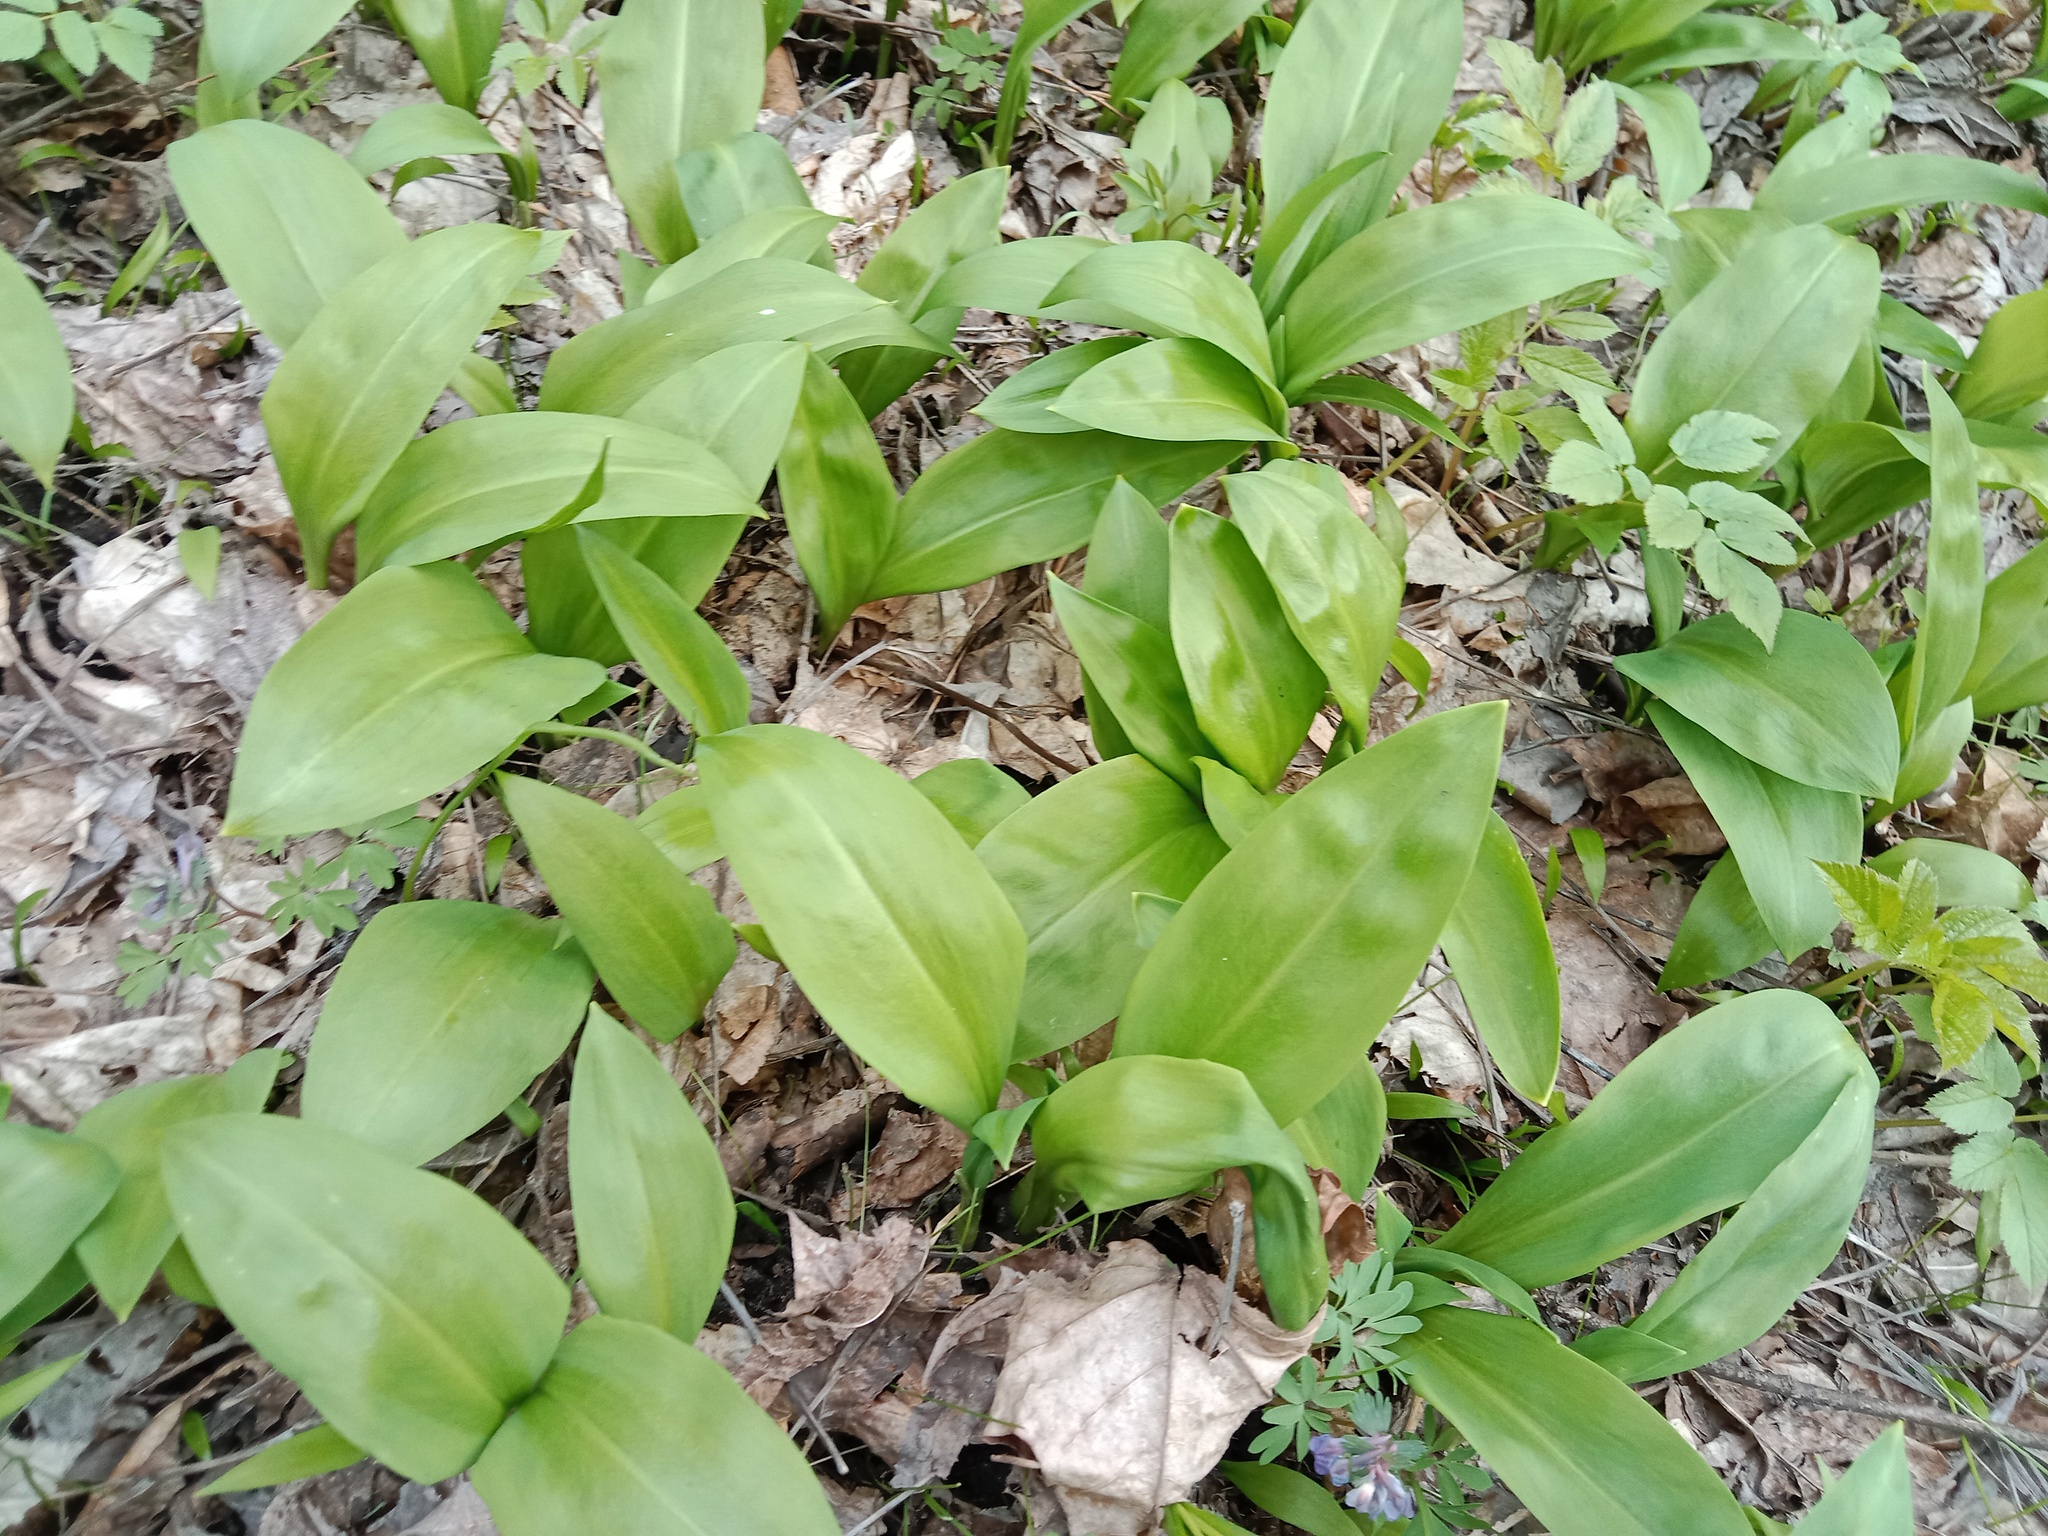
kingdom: Plantae
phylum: Tracheophyta
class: Liliopsida
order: Asparagales
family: Amaryllidaceae
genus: Allium
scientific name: Allium ursinum
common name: Ramsons
